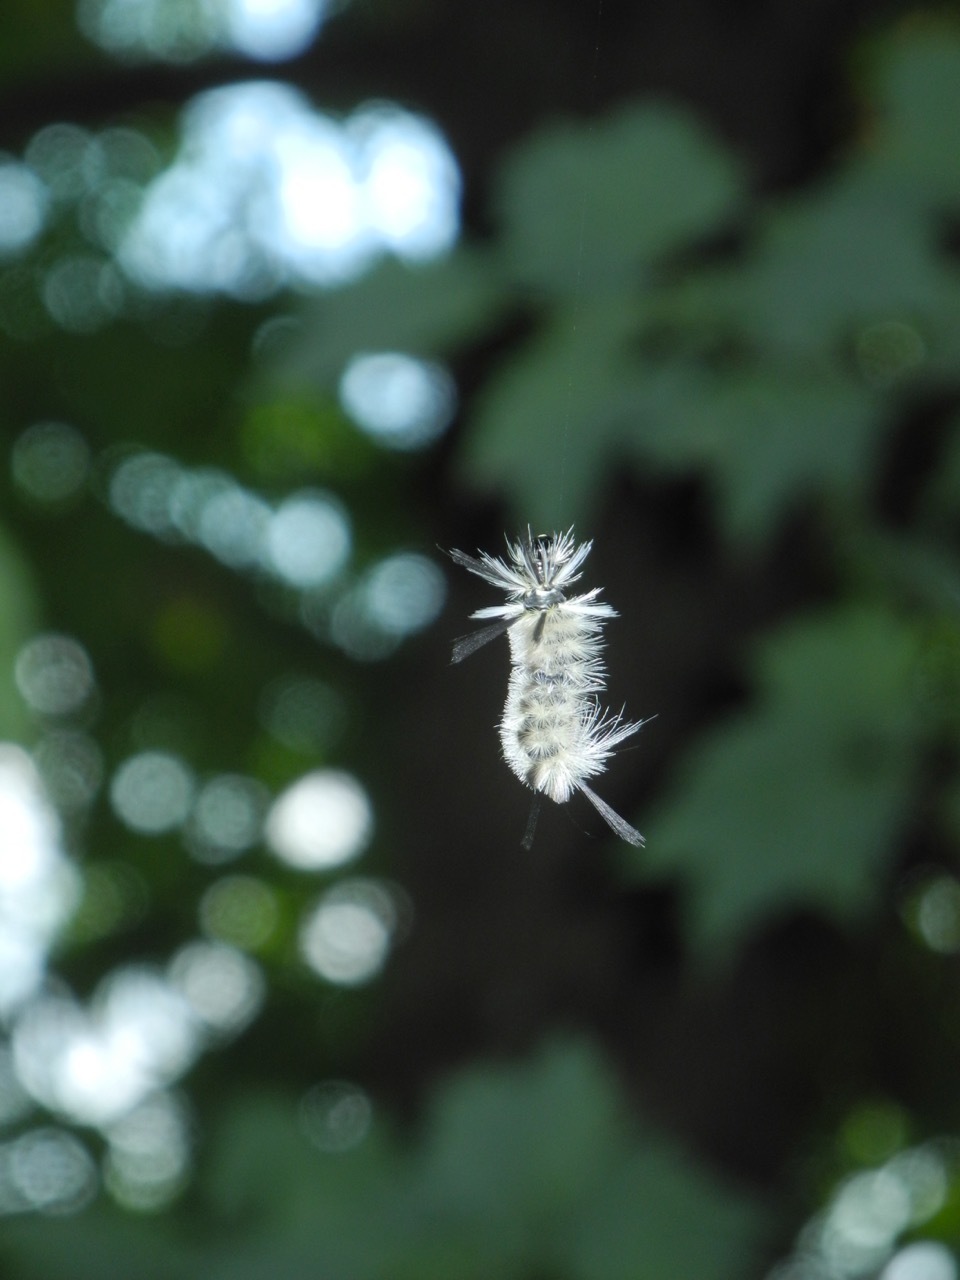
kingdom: Animalia
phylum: Arthropoda
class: Insecta
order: Lepidoptera
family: Erebidae
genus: Lophocampa
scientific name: Lophocampa caryae
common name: Hickory tussock moth
